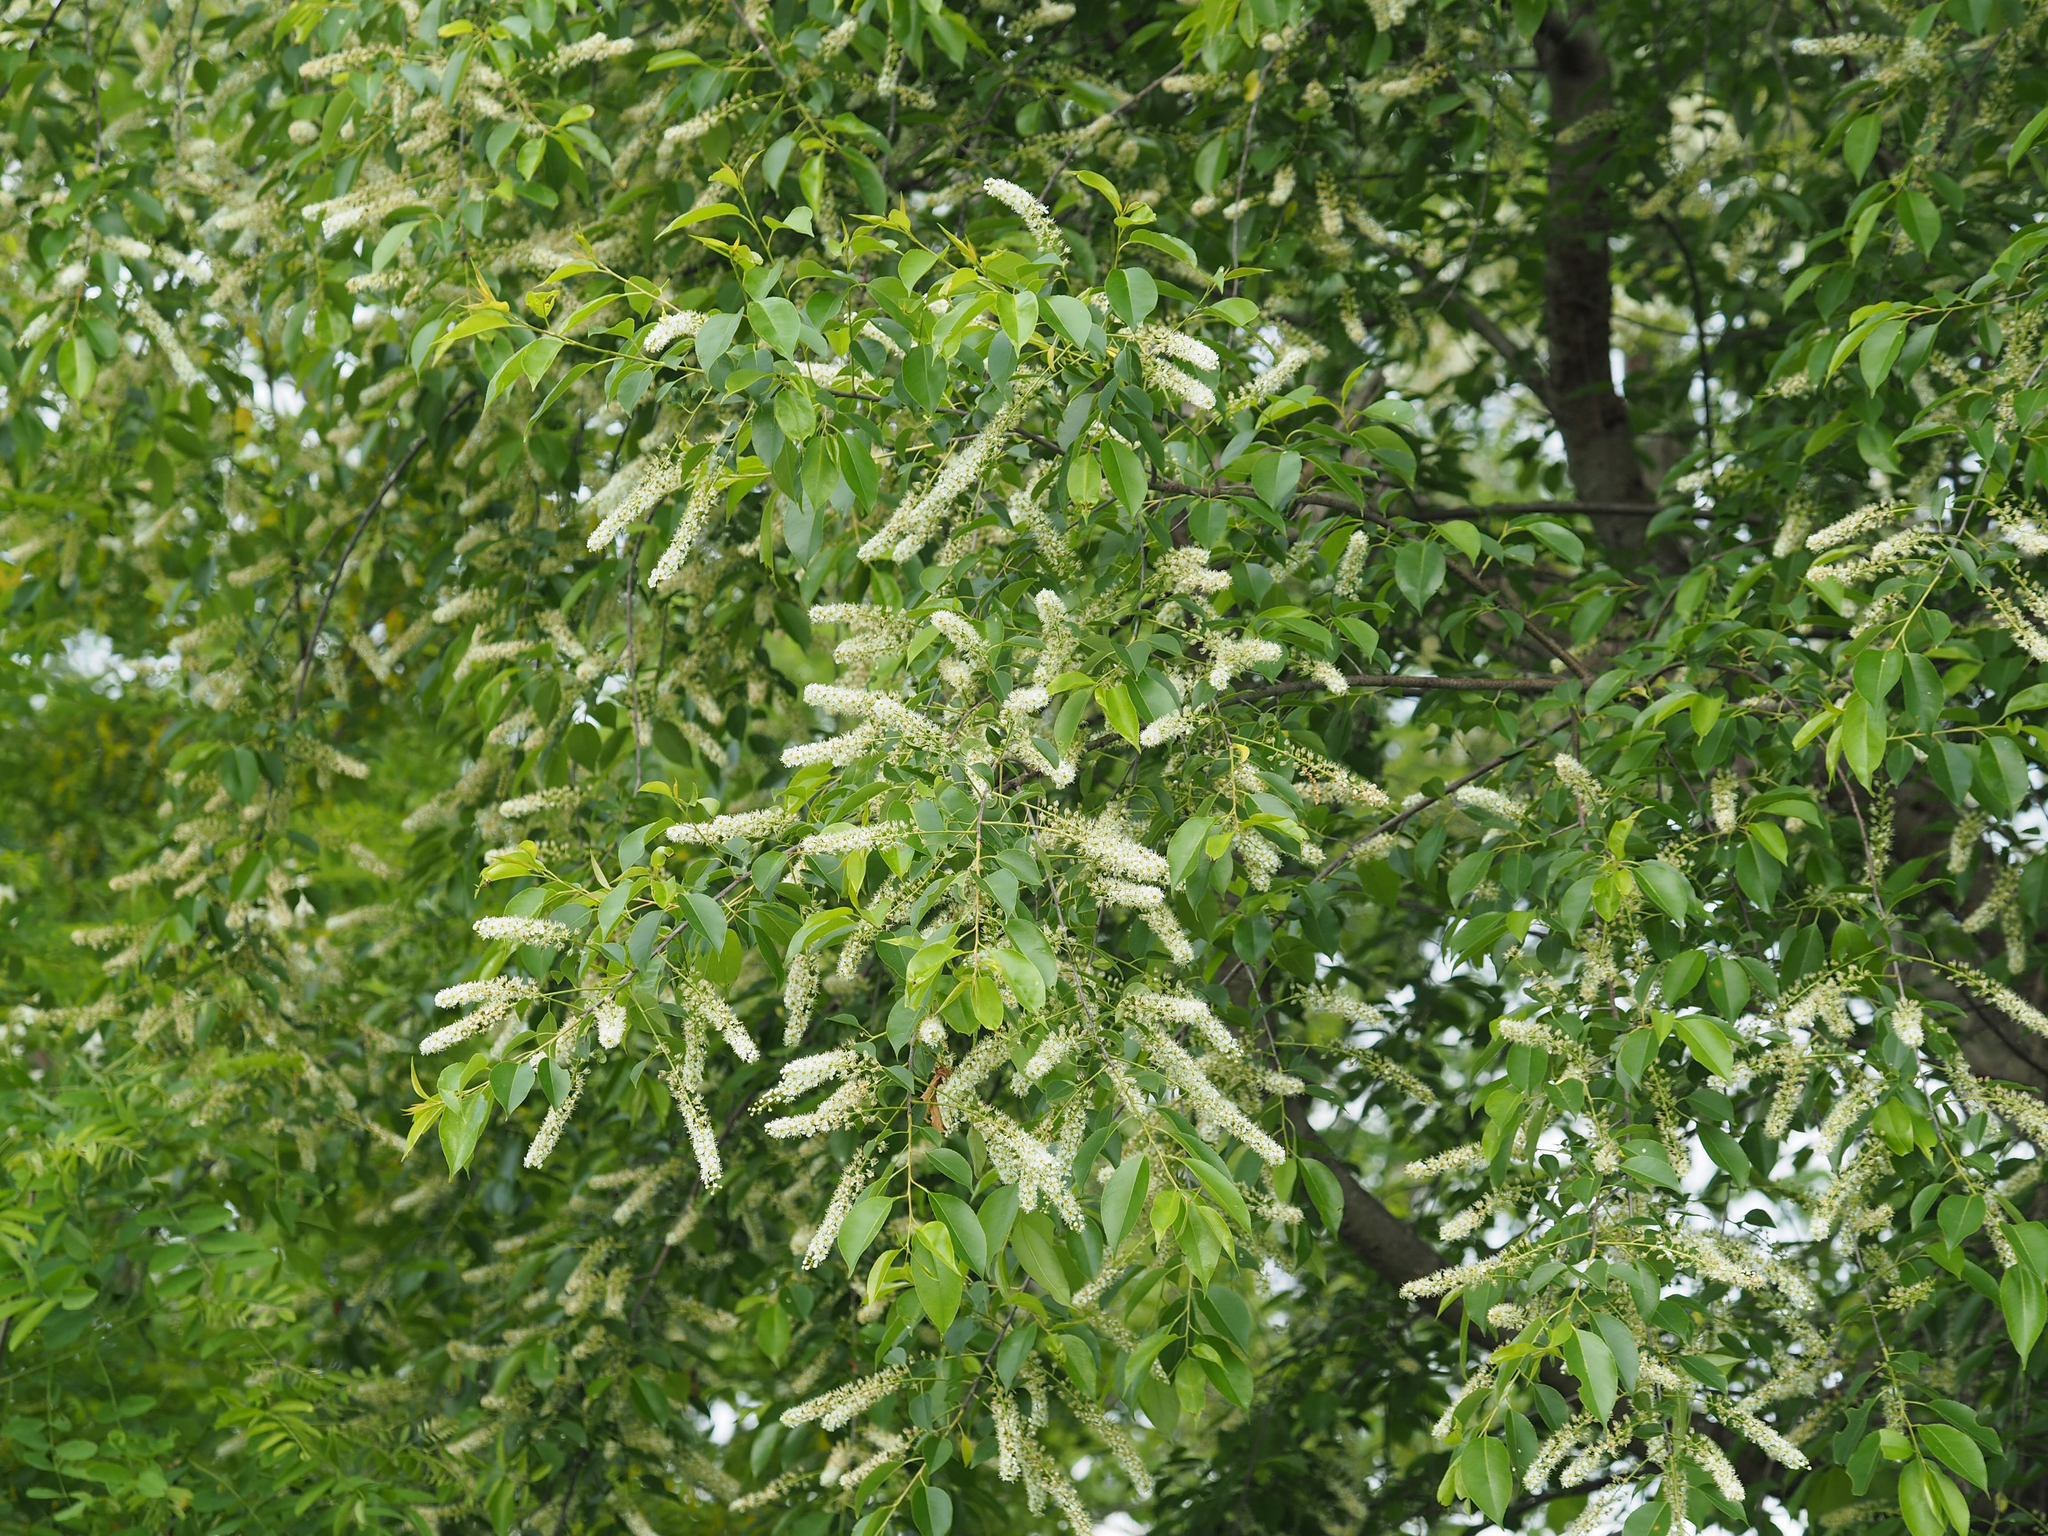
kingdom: Plantae
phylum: Tracheophyta
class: Magnoliopsida
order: Rosales
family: Rosaceae
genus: Prunus
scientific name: Prunus serotina
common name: Black cherry
